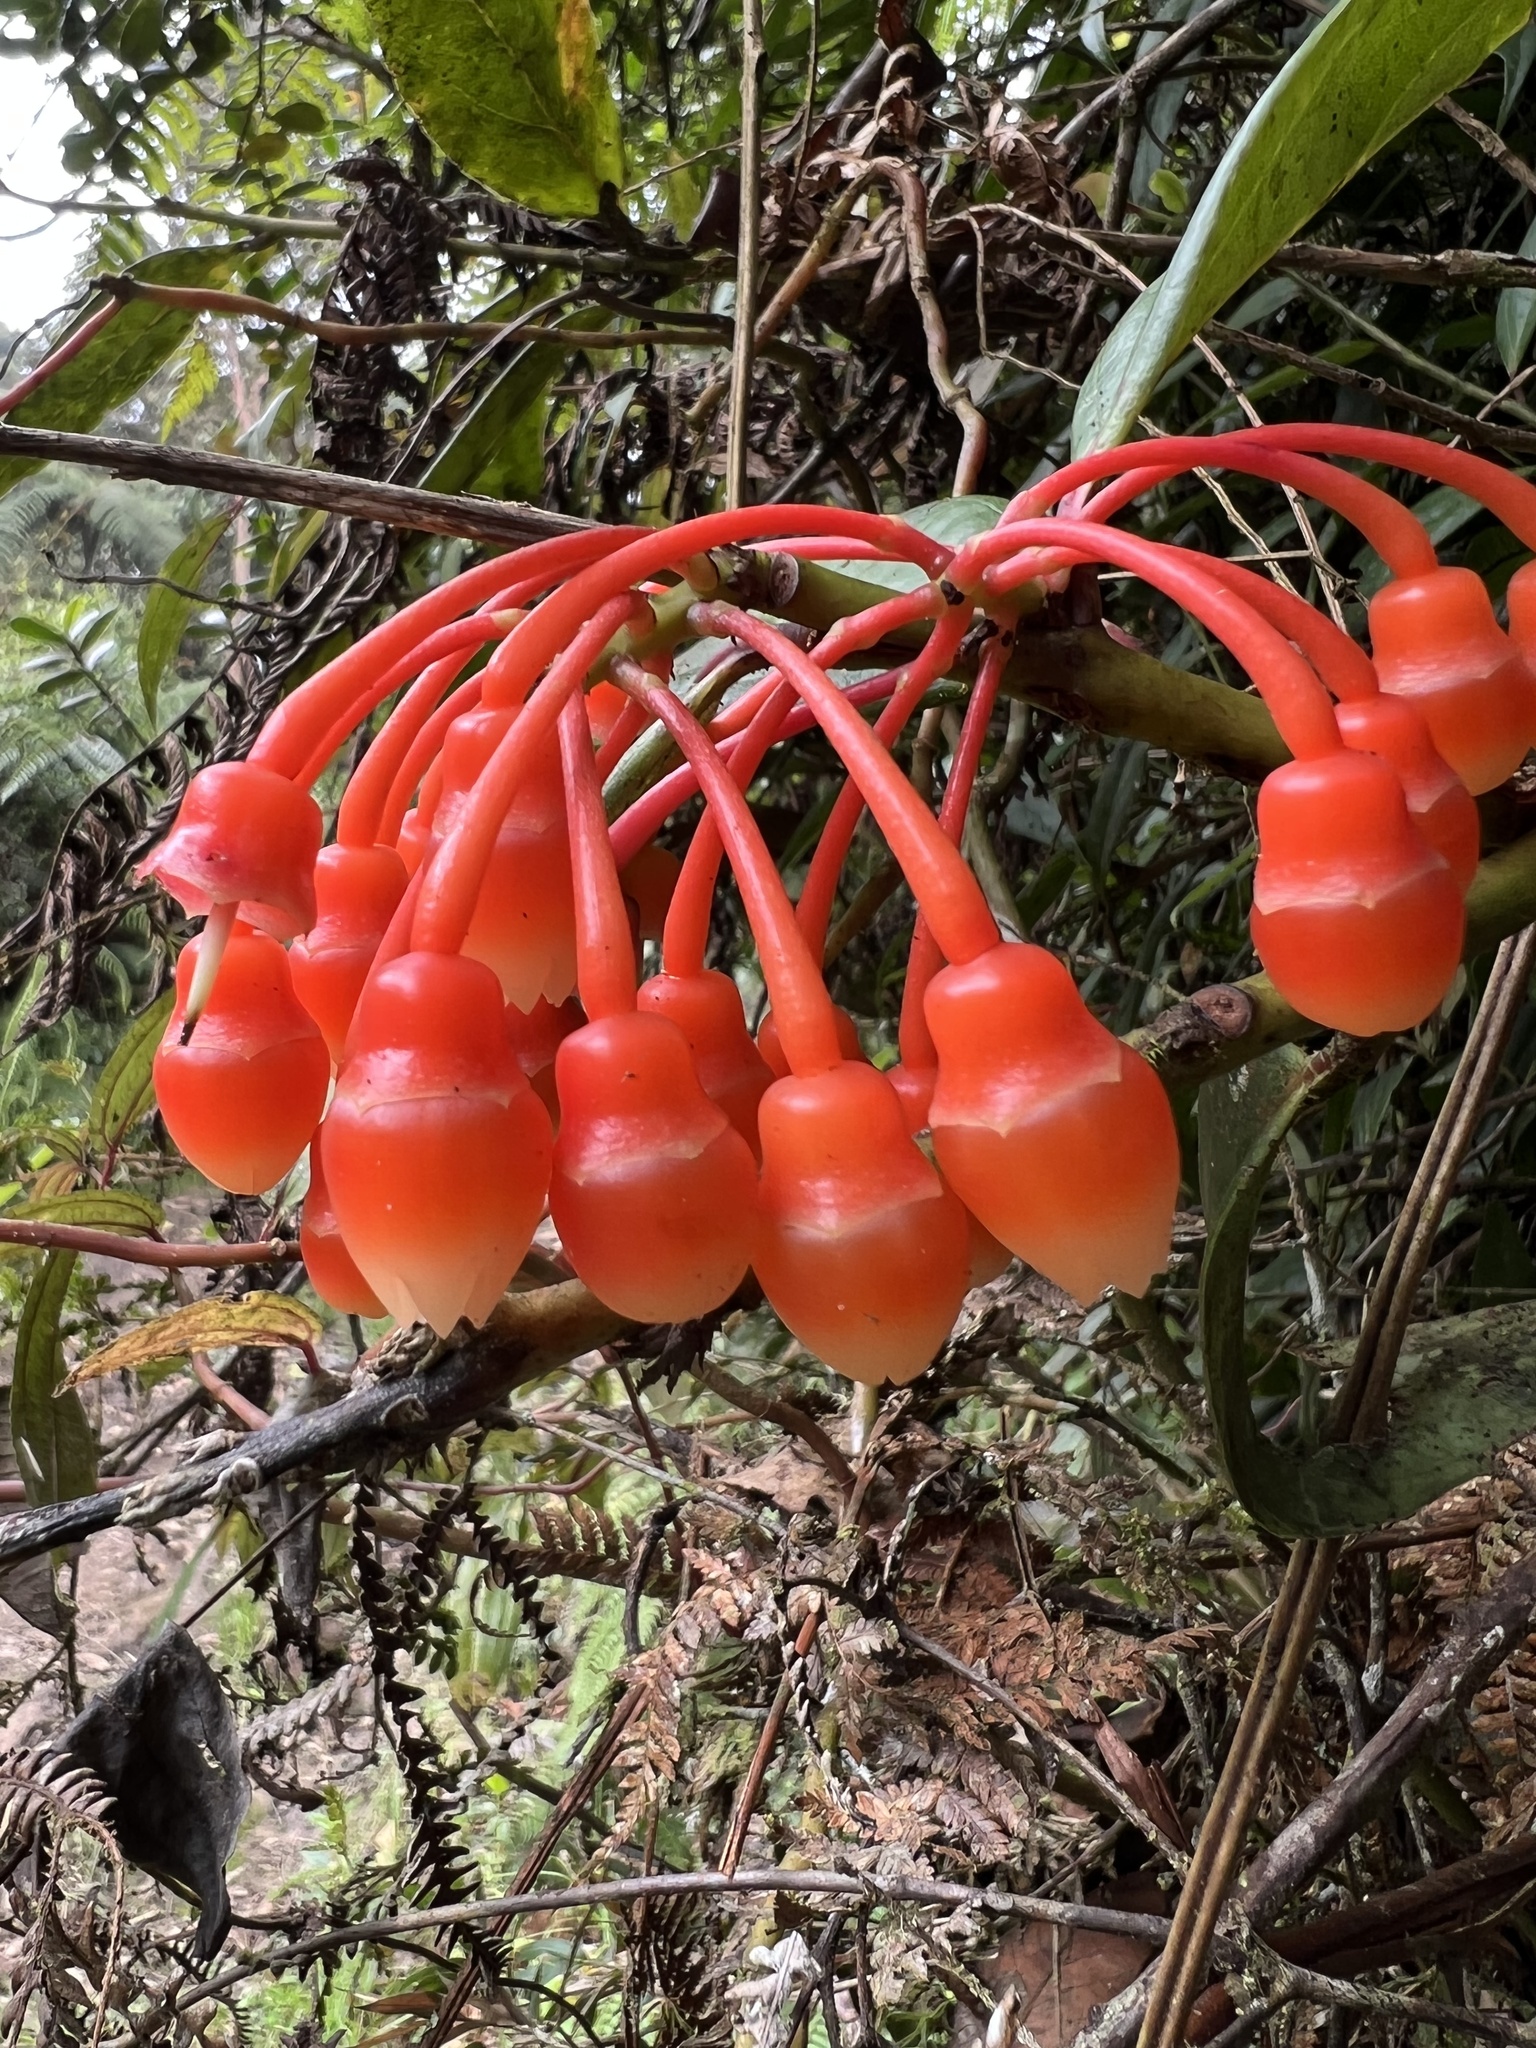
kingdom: Plantae
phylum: Tracheophyta
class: Magnoliopsida
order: Ericales
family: Ericaceae
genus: Psammisia
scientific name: Psammisia graebneriana
